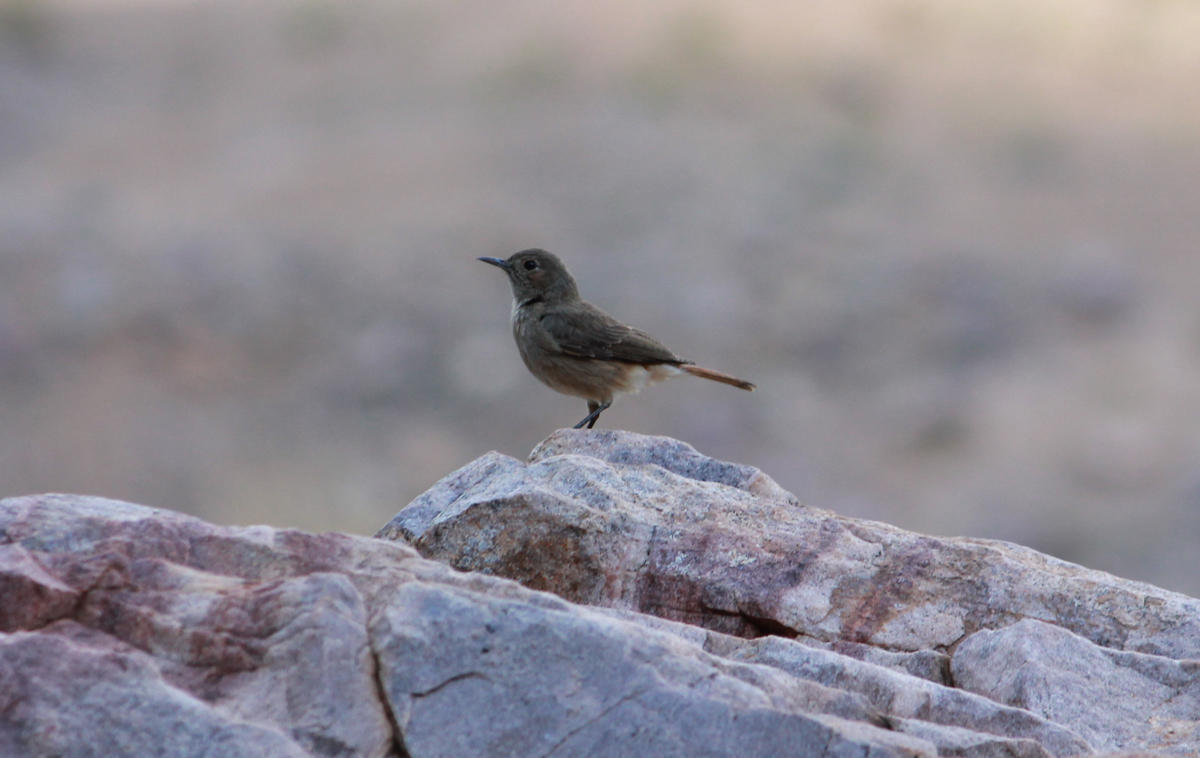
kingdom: Animalia
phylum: Chordata
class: Aves
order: Passeriformes
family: Muscicapidae
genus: Oenanthe
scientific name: Oenanthe familiaris
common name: Familiar chat
